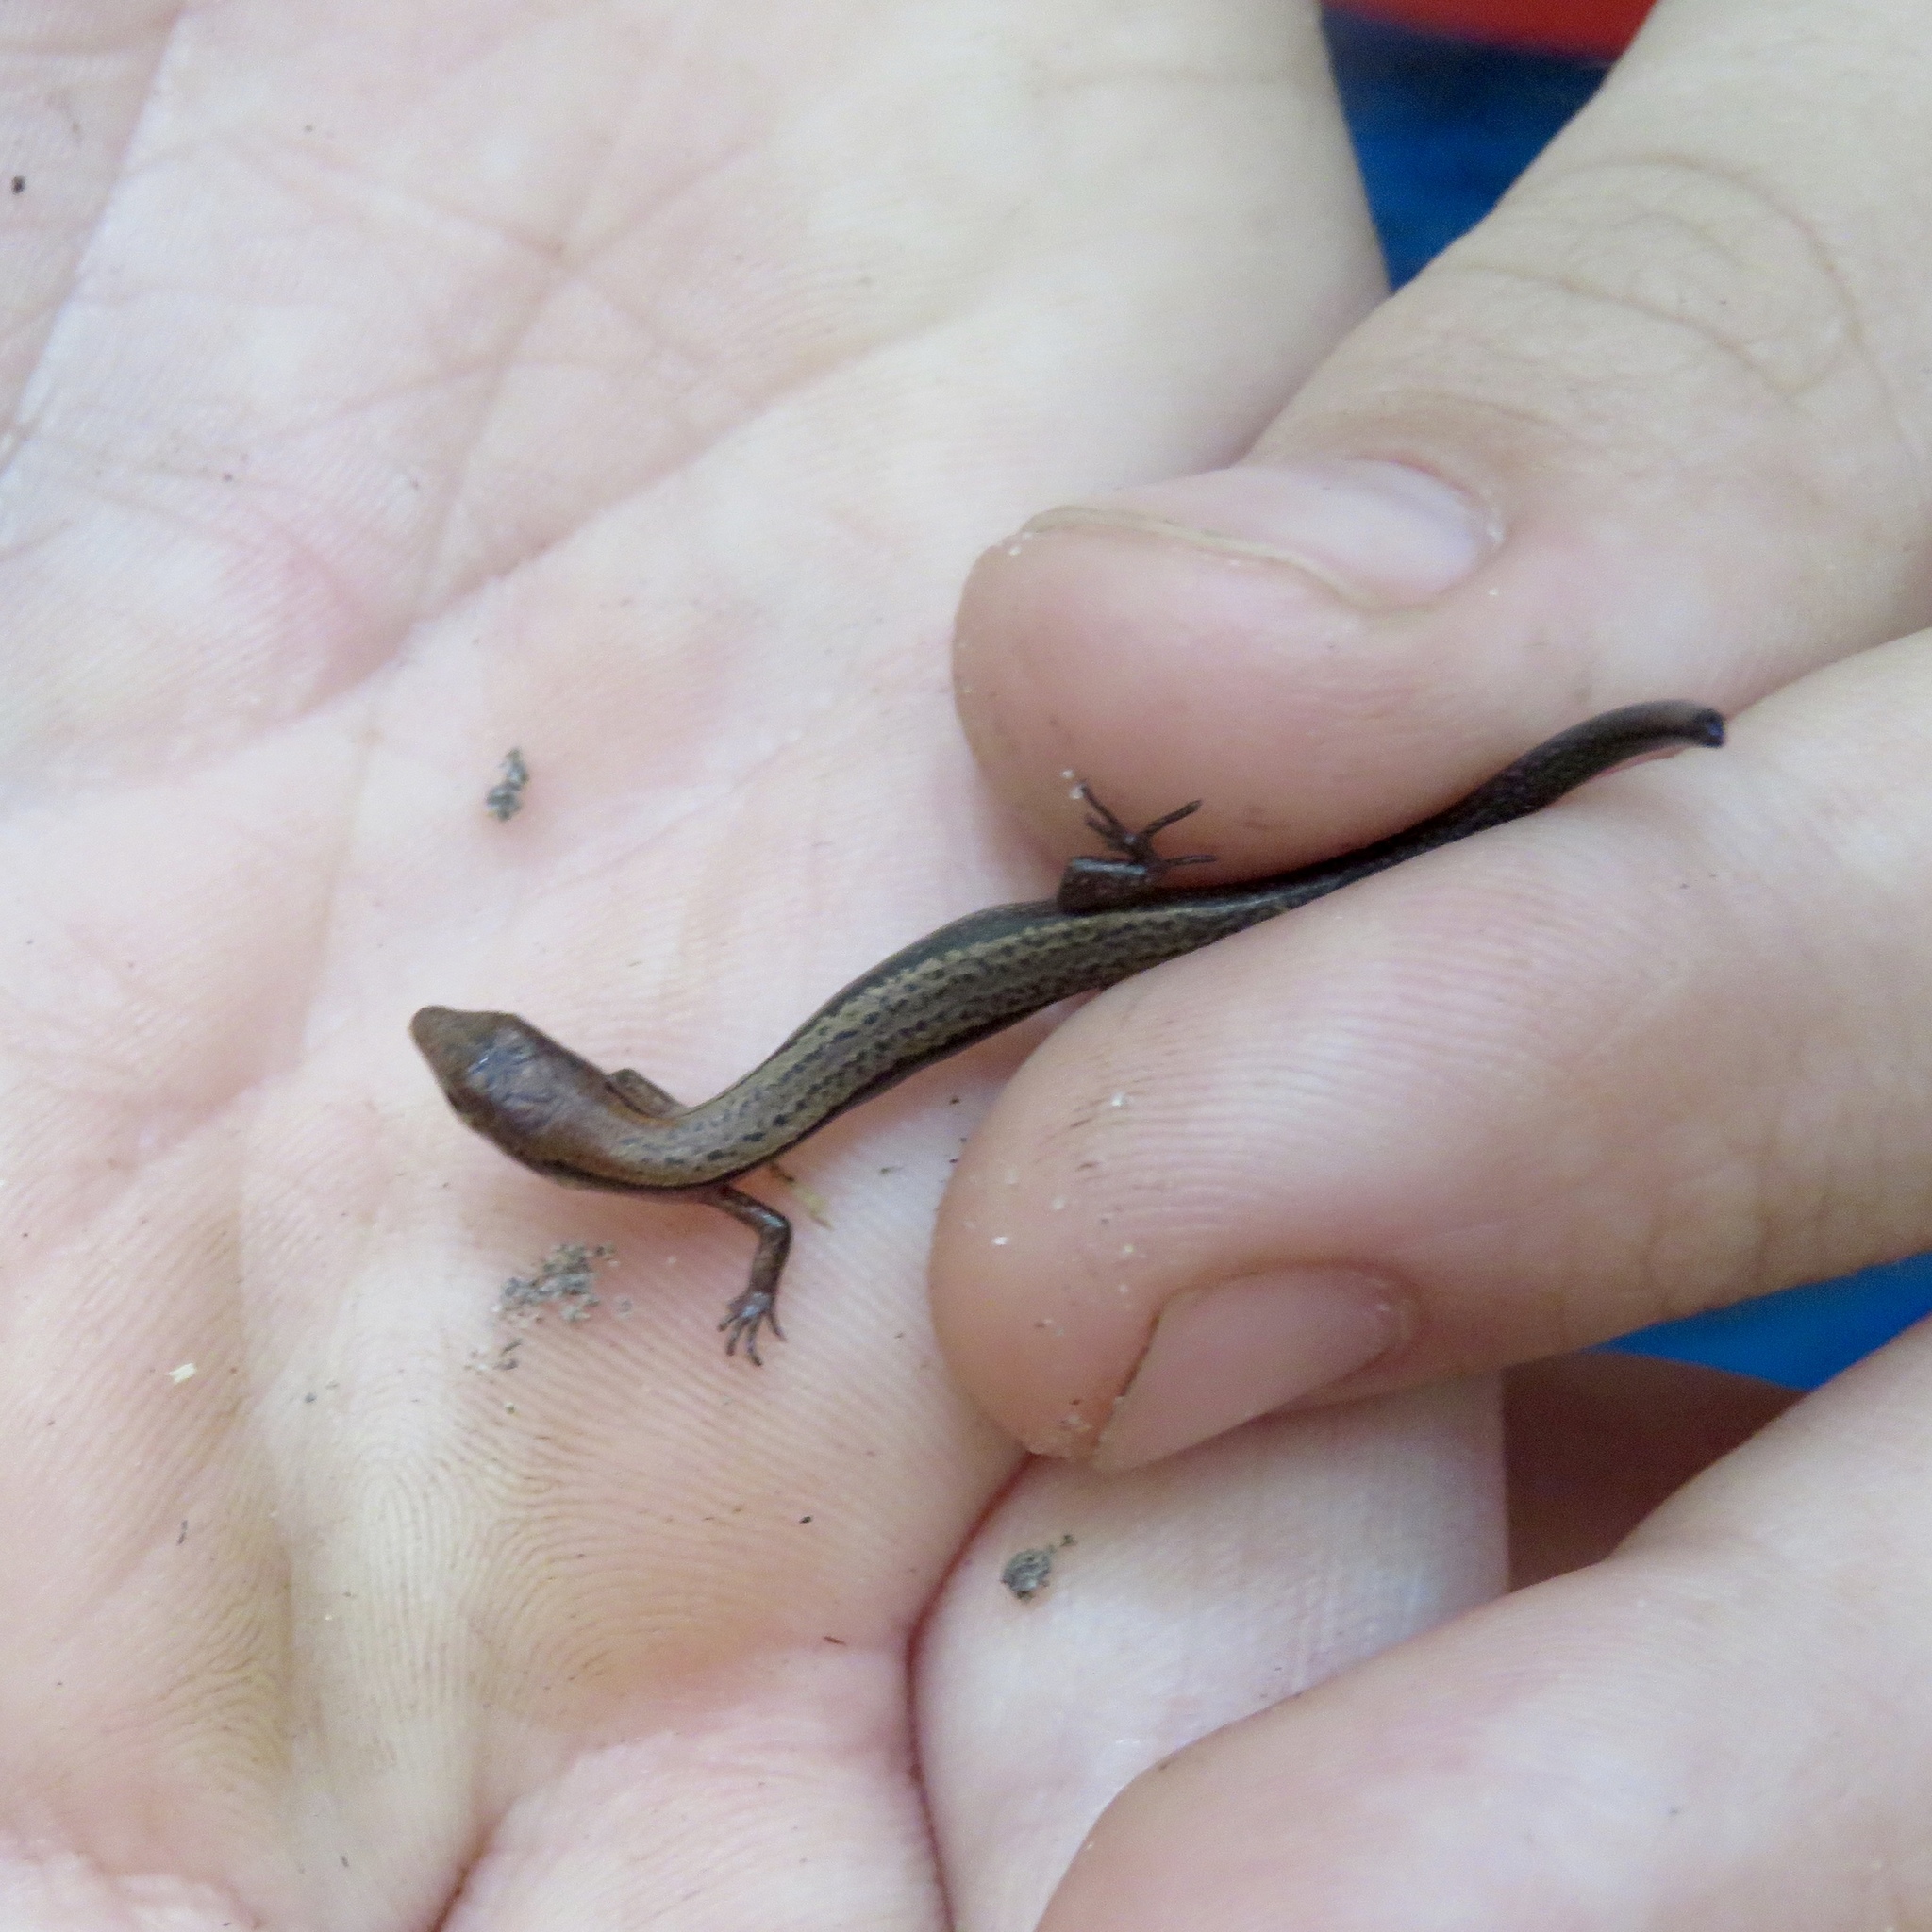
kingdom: Animalia
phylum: Chordata
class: Squamata
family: Scincidae
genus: Scincella
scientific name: Scincella lateralis
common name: Ground skink
